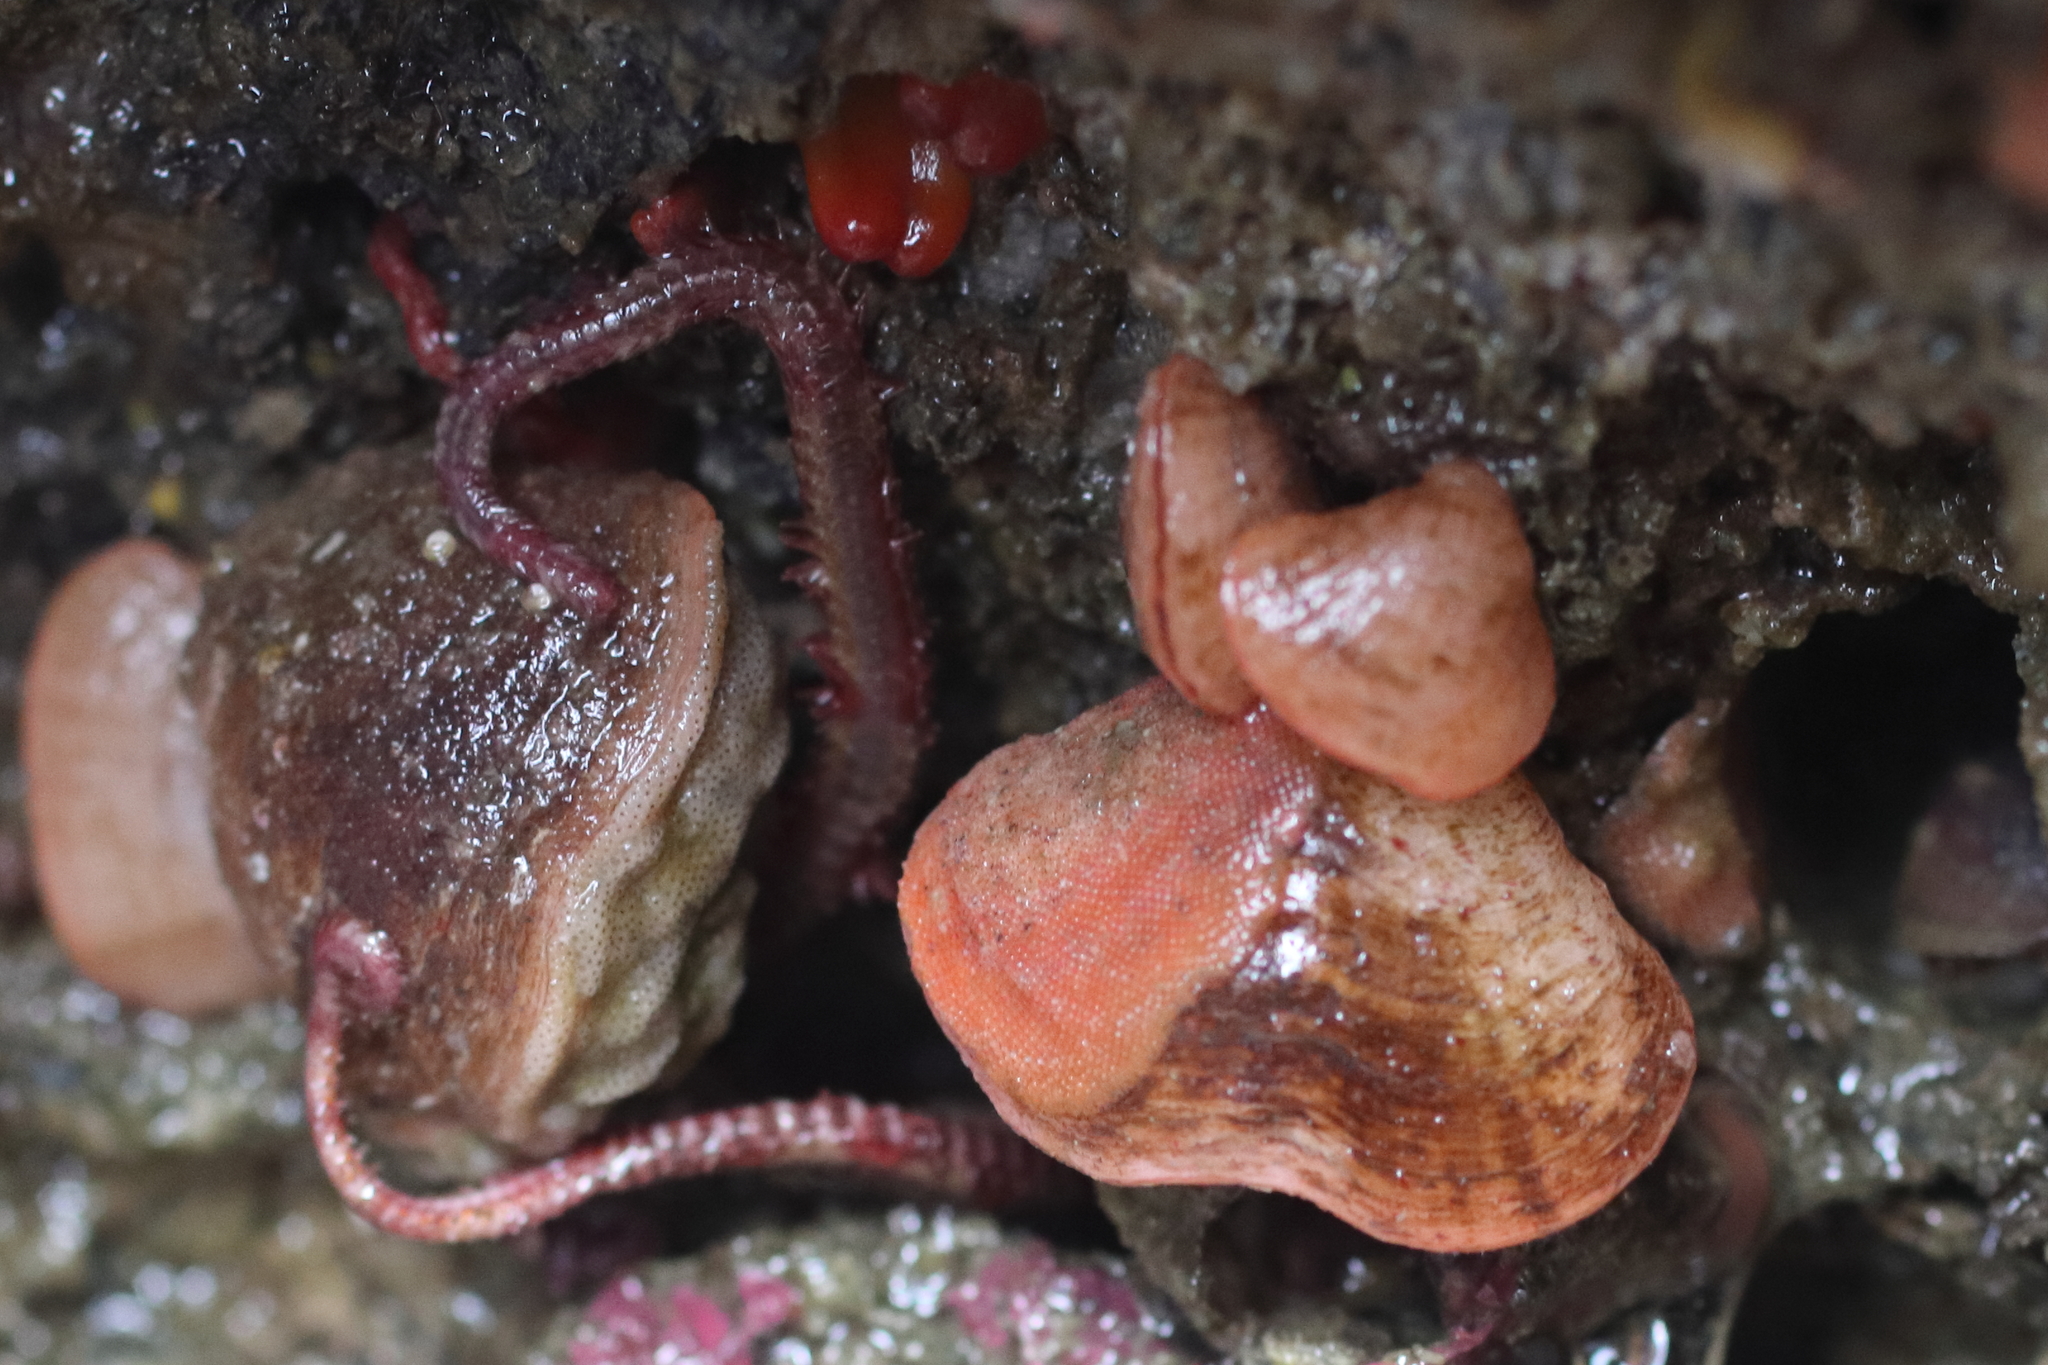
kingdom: Animalia
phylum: Brachiopoda
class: Rhynchonellata
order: Terebratulida
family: Terebrataliidae
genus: Terebratalia
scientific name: Terebratalia transversa
